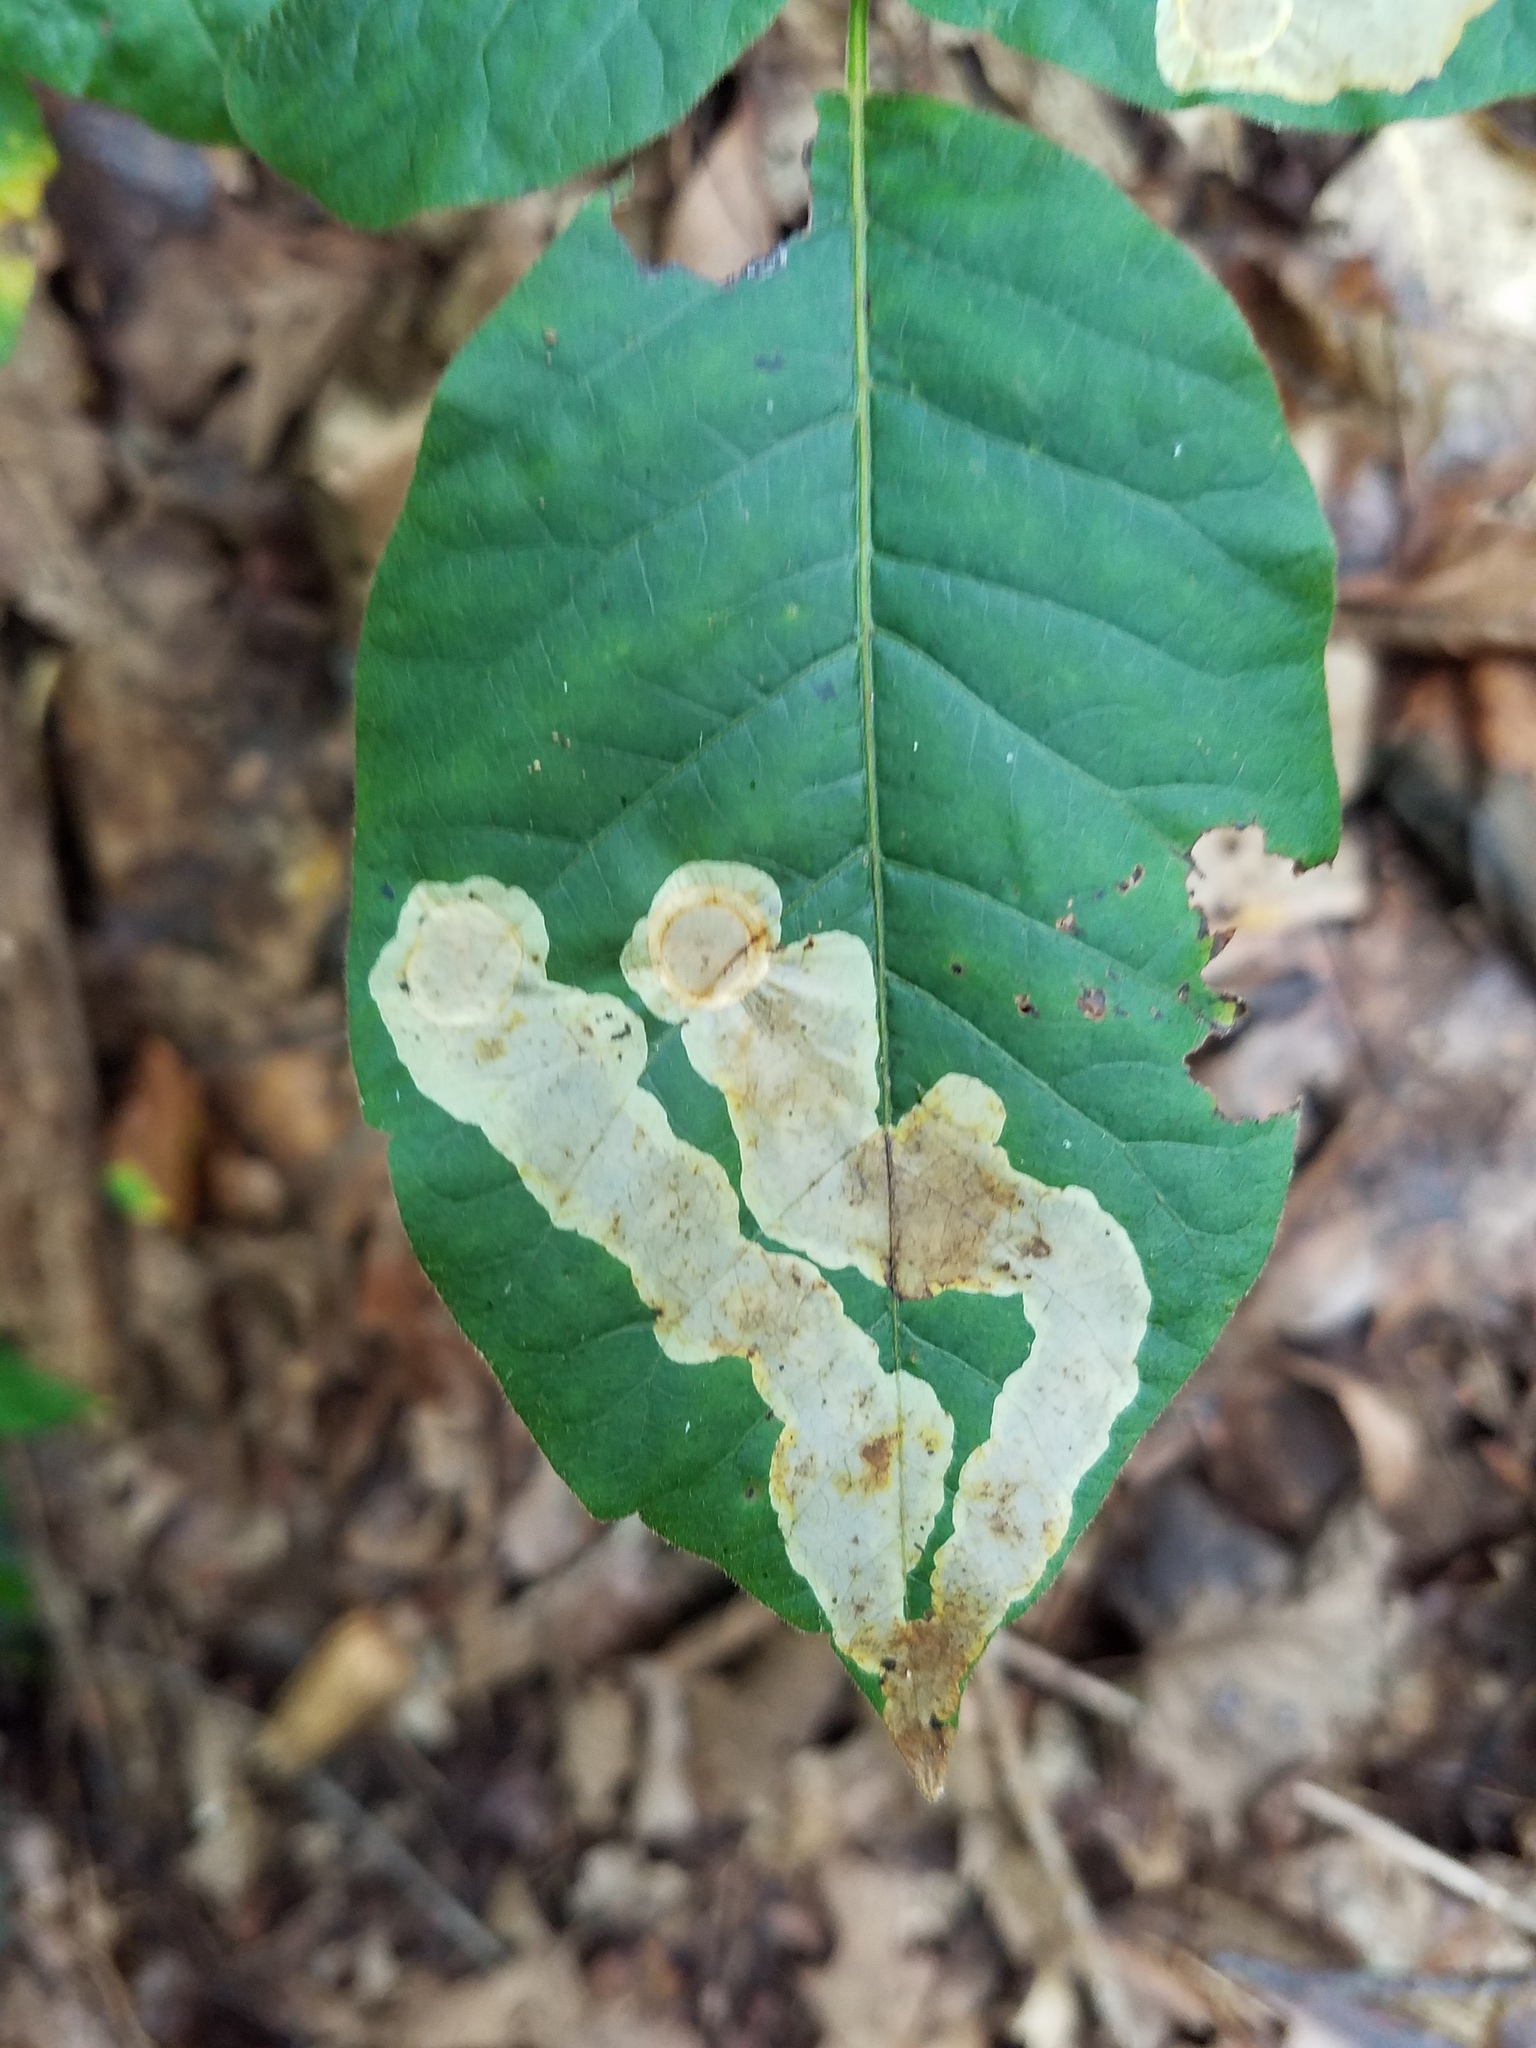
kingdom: Animalia
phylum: Arthropoda
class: Insecta
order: Lepidoptera
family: Gracillariidae
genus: Cameraria
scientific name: Cameraria guttifinitella
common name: Poison ivy leaf-miner moth
